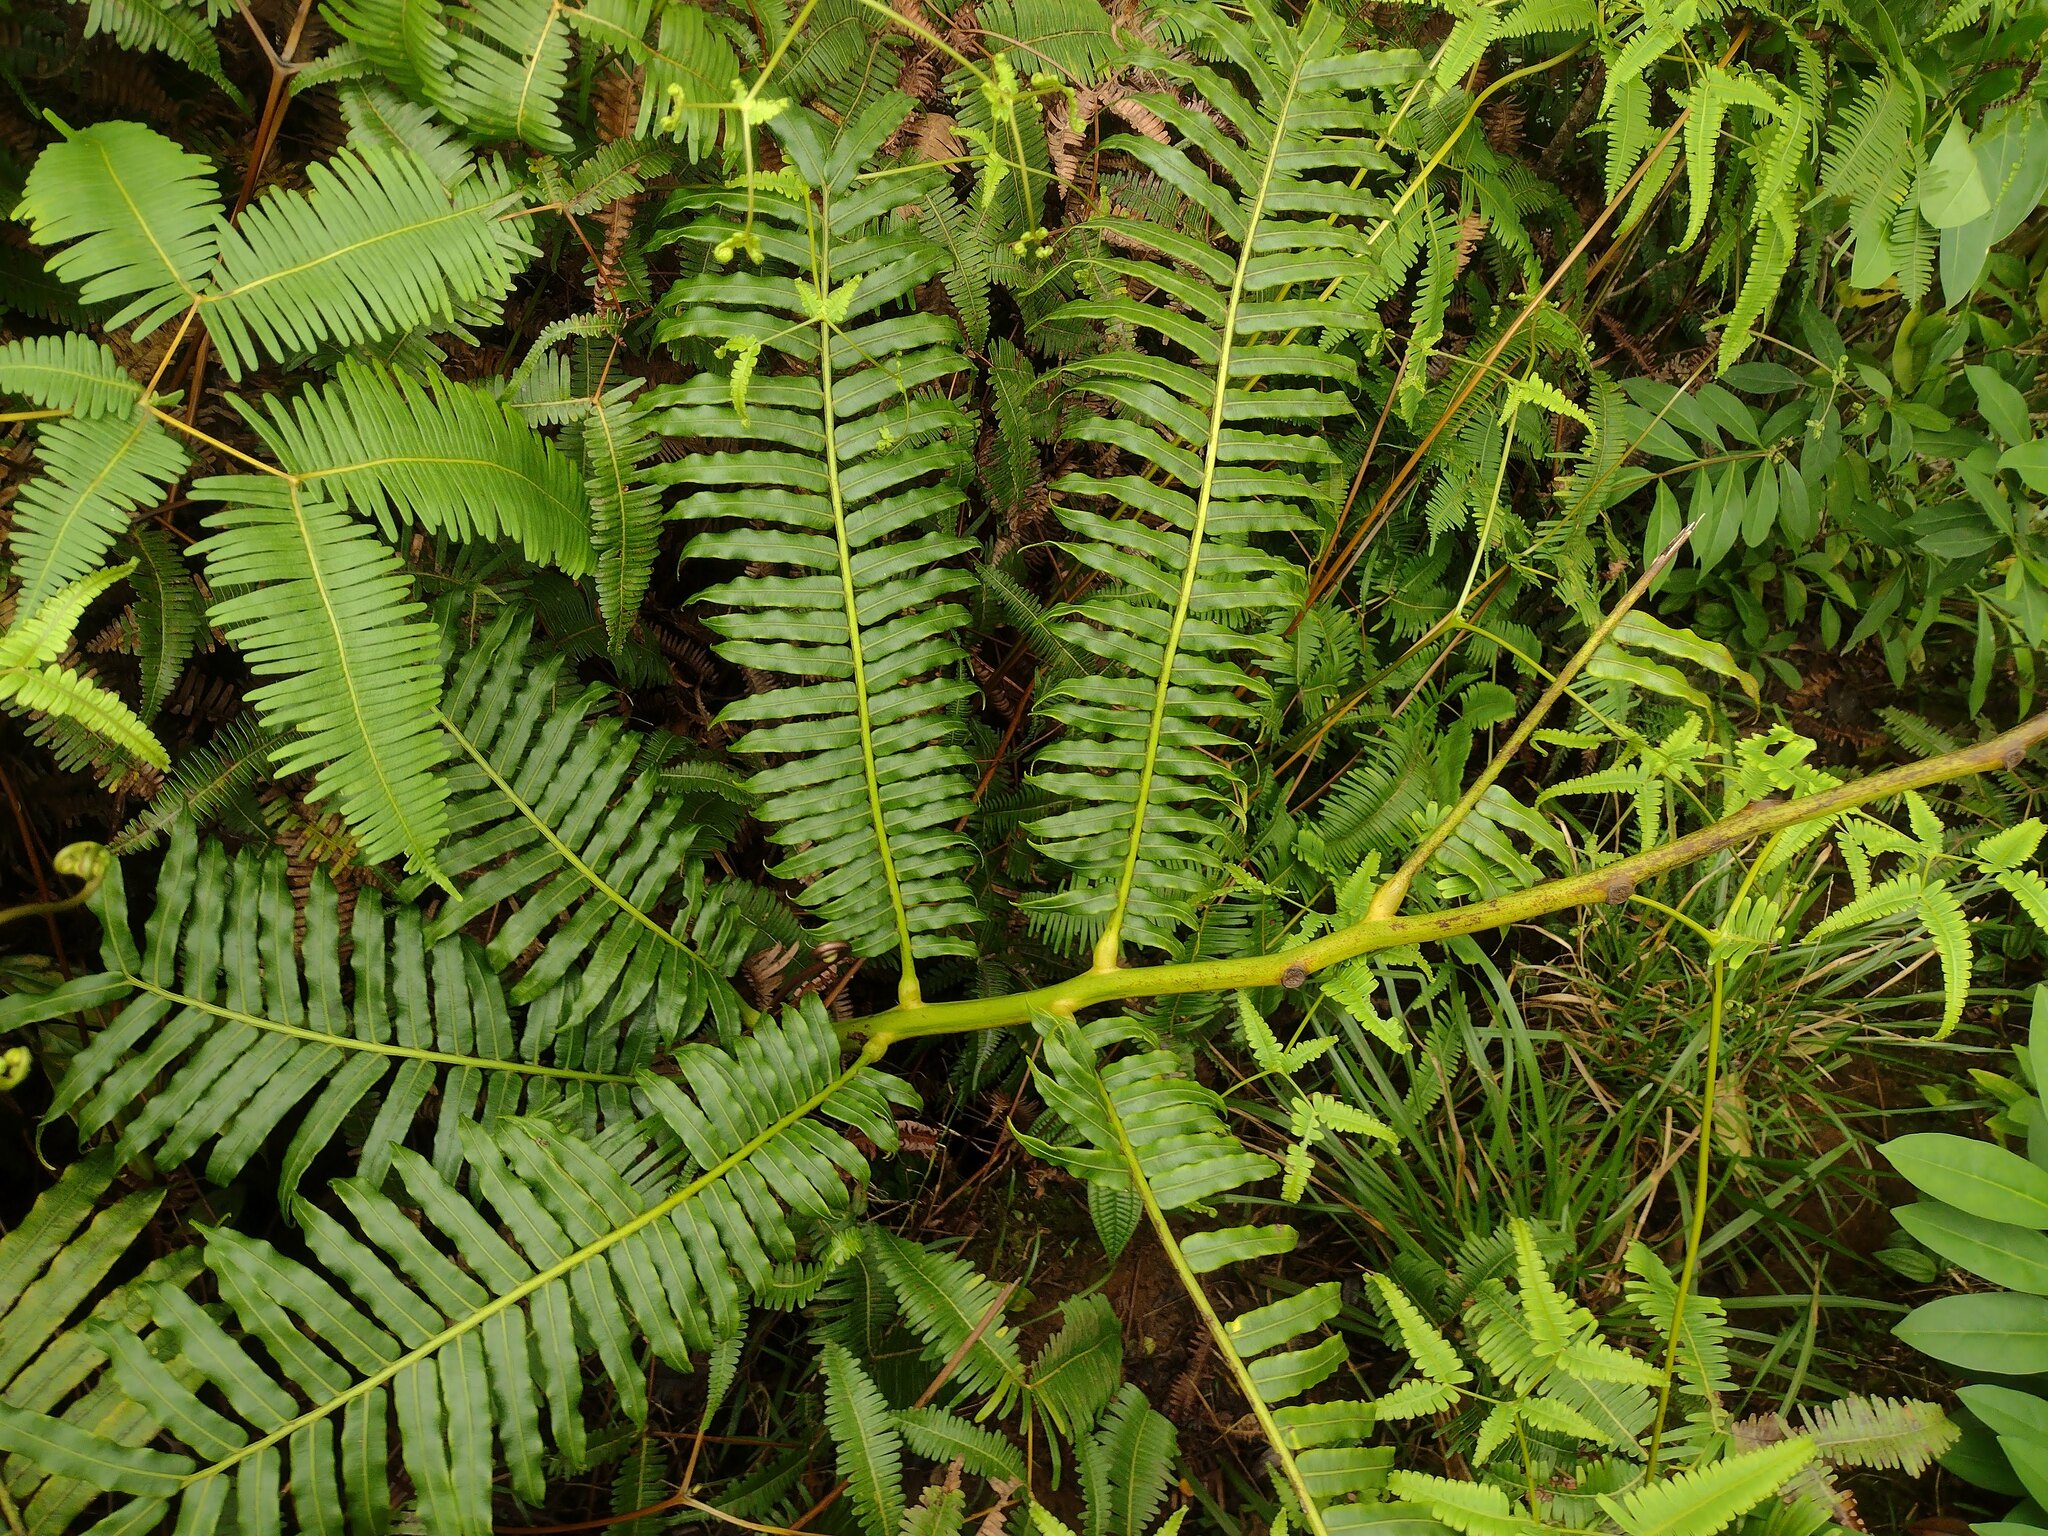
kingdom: Plantae
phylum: Tracheophyta
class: Polypodiopsida
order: Marattiales
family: Marattiaceae
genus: Angiopteris
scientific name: Angiopteris evecta
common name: Mule's-foot fern
